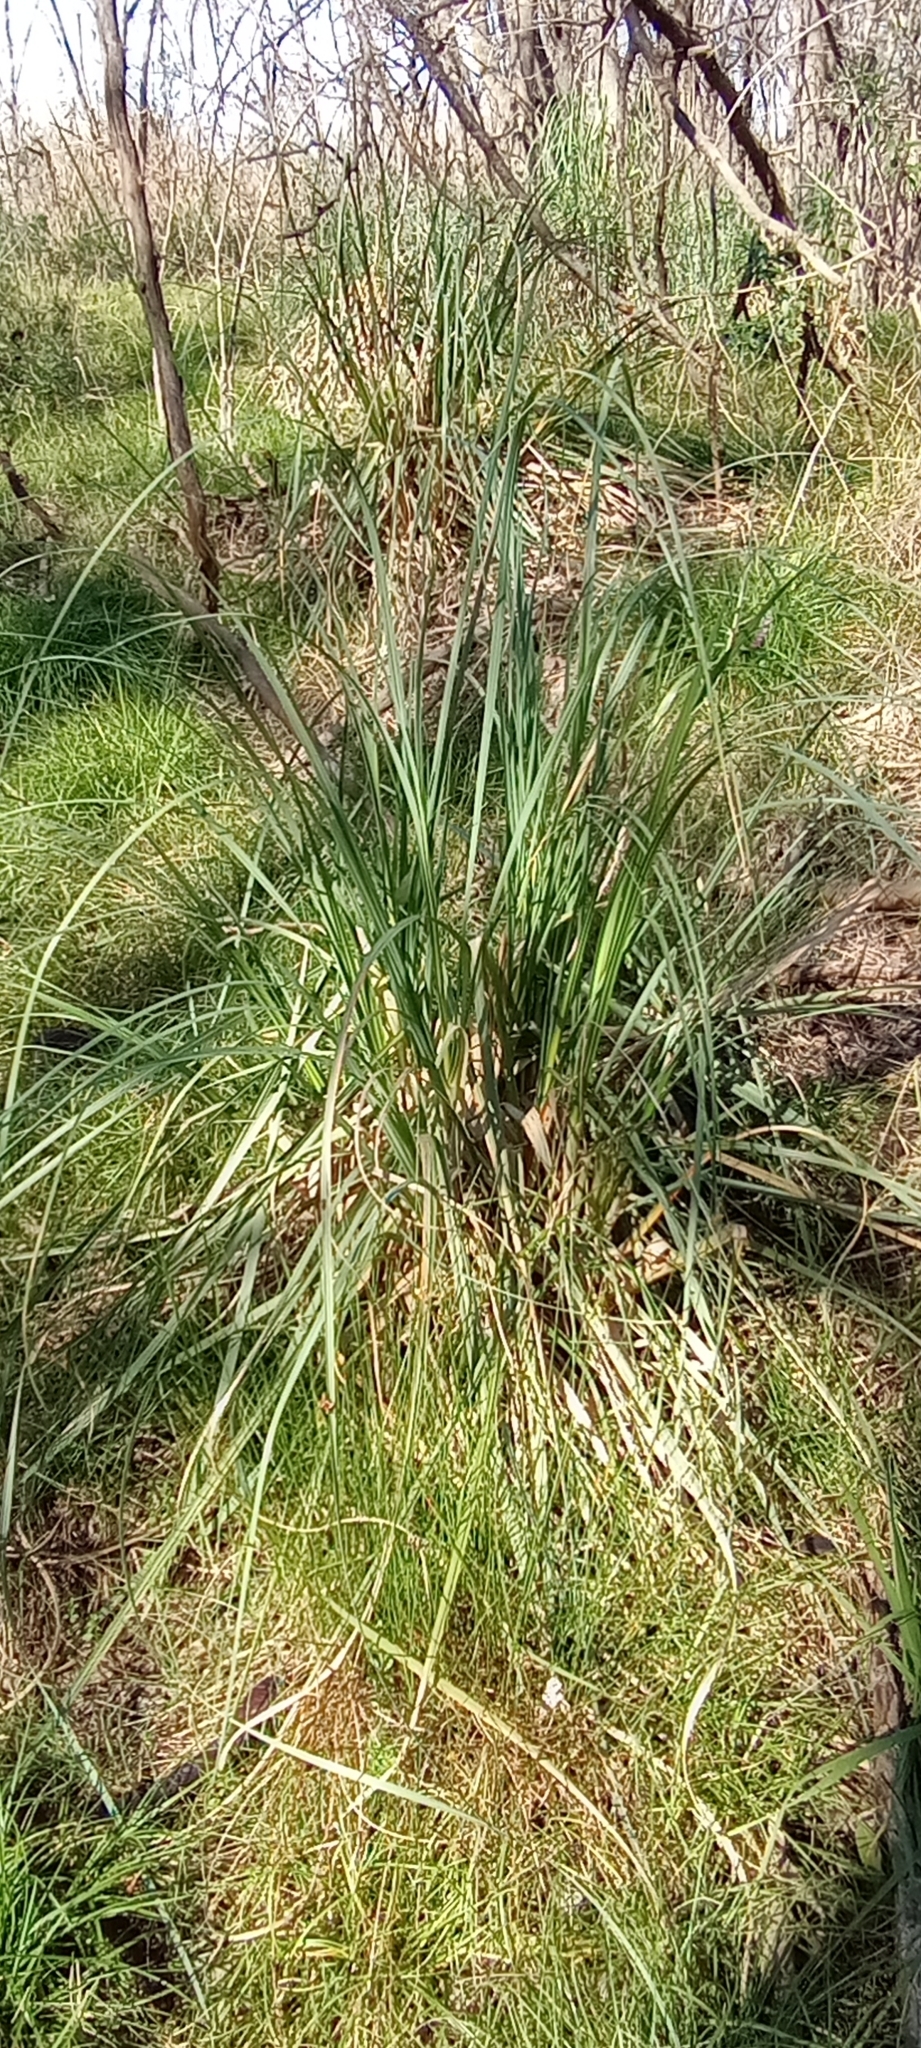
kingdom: Plantae
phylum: Tracheophyta
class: Liliopsida
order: Poales
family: Poaceae
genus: Cortaderia
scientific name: Cortaderia selloana
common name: Uruguayan pampas grass
